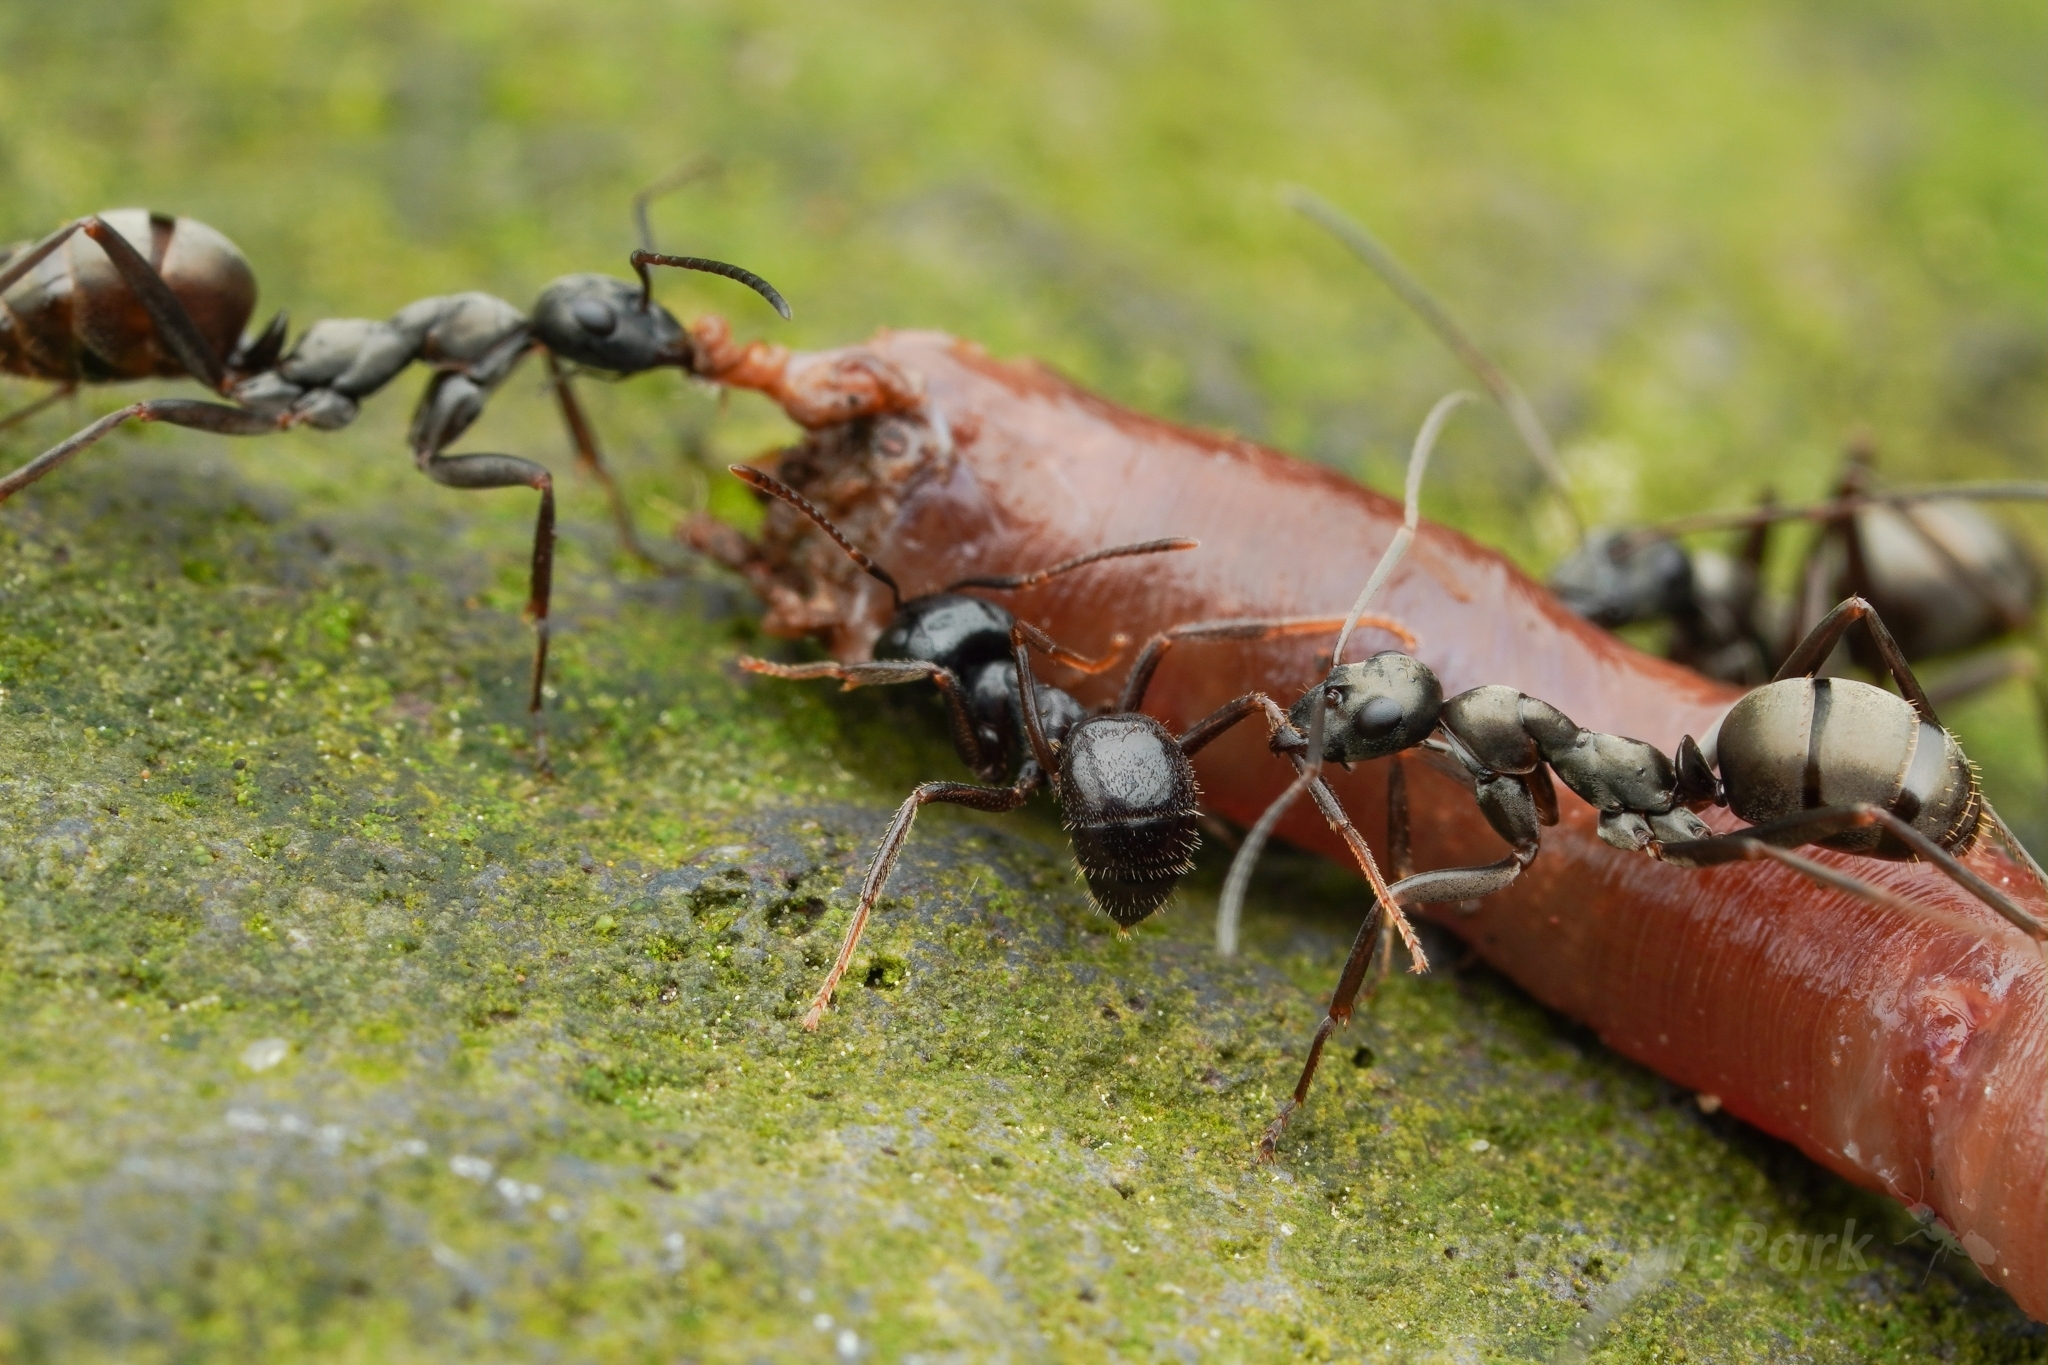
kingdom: Animalia
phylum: Arthropoda
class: Insecta
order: Hymenoptera
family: Formicidae
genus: Formica
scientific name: Formica hayashi
